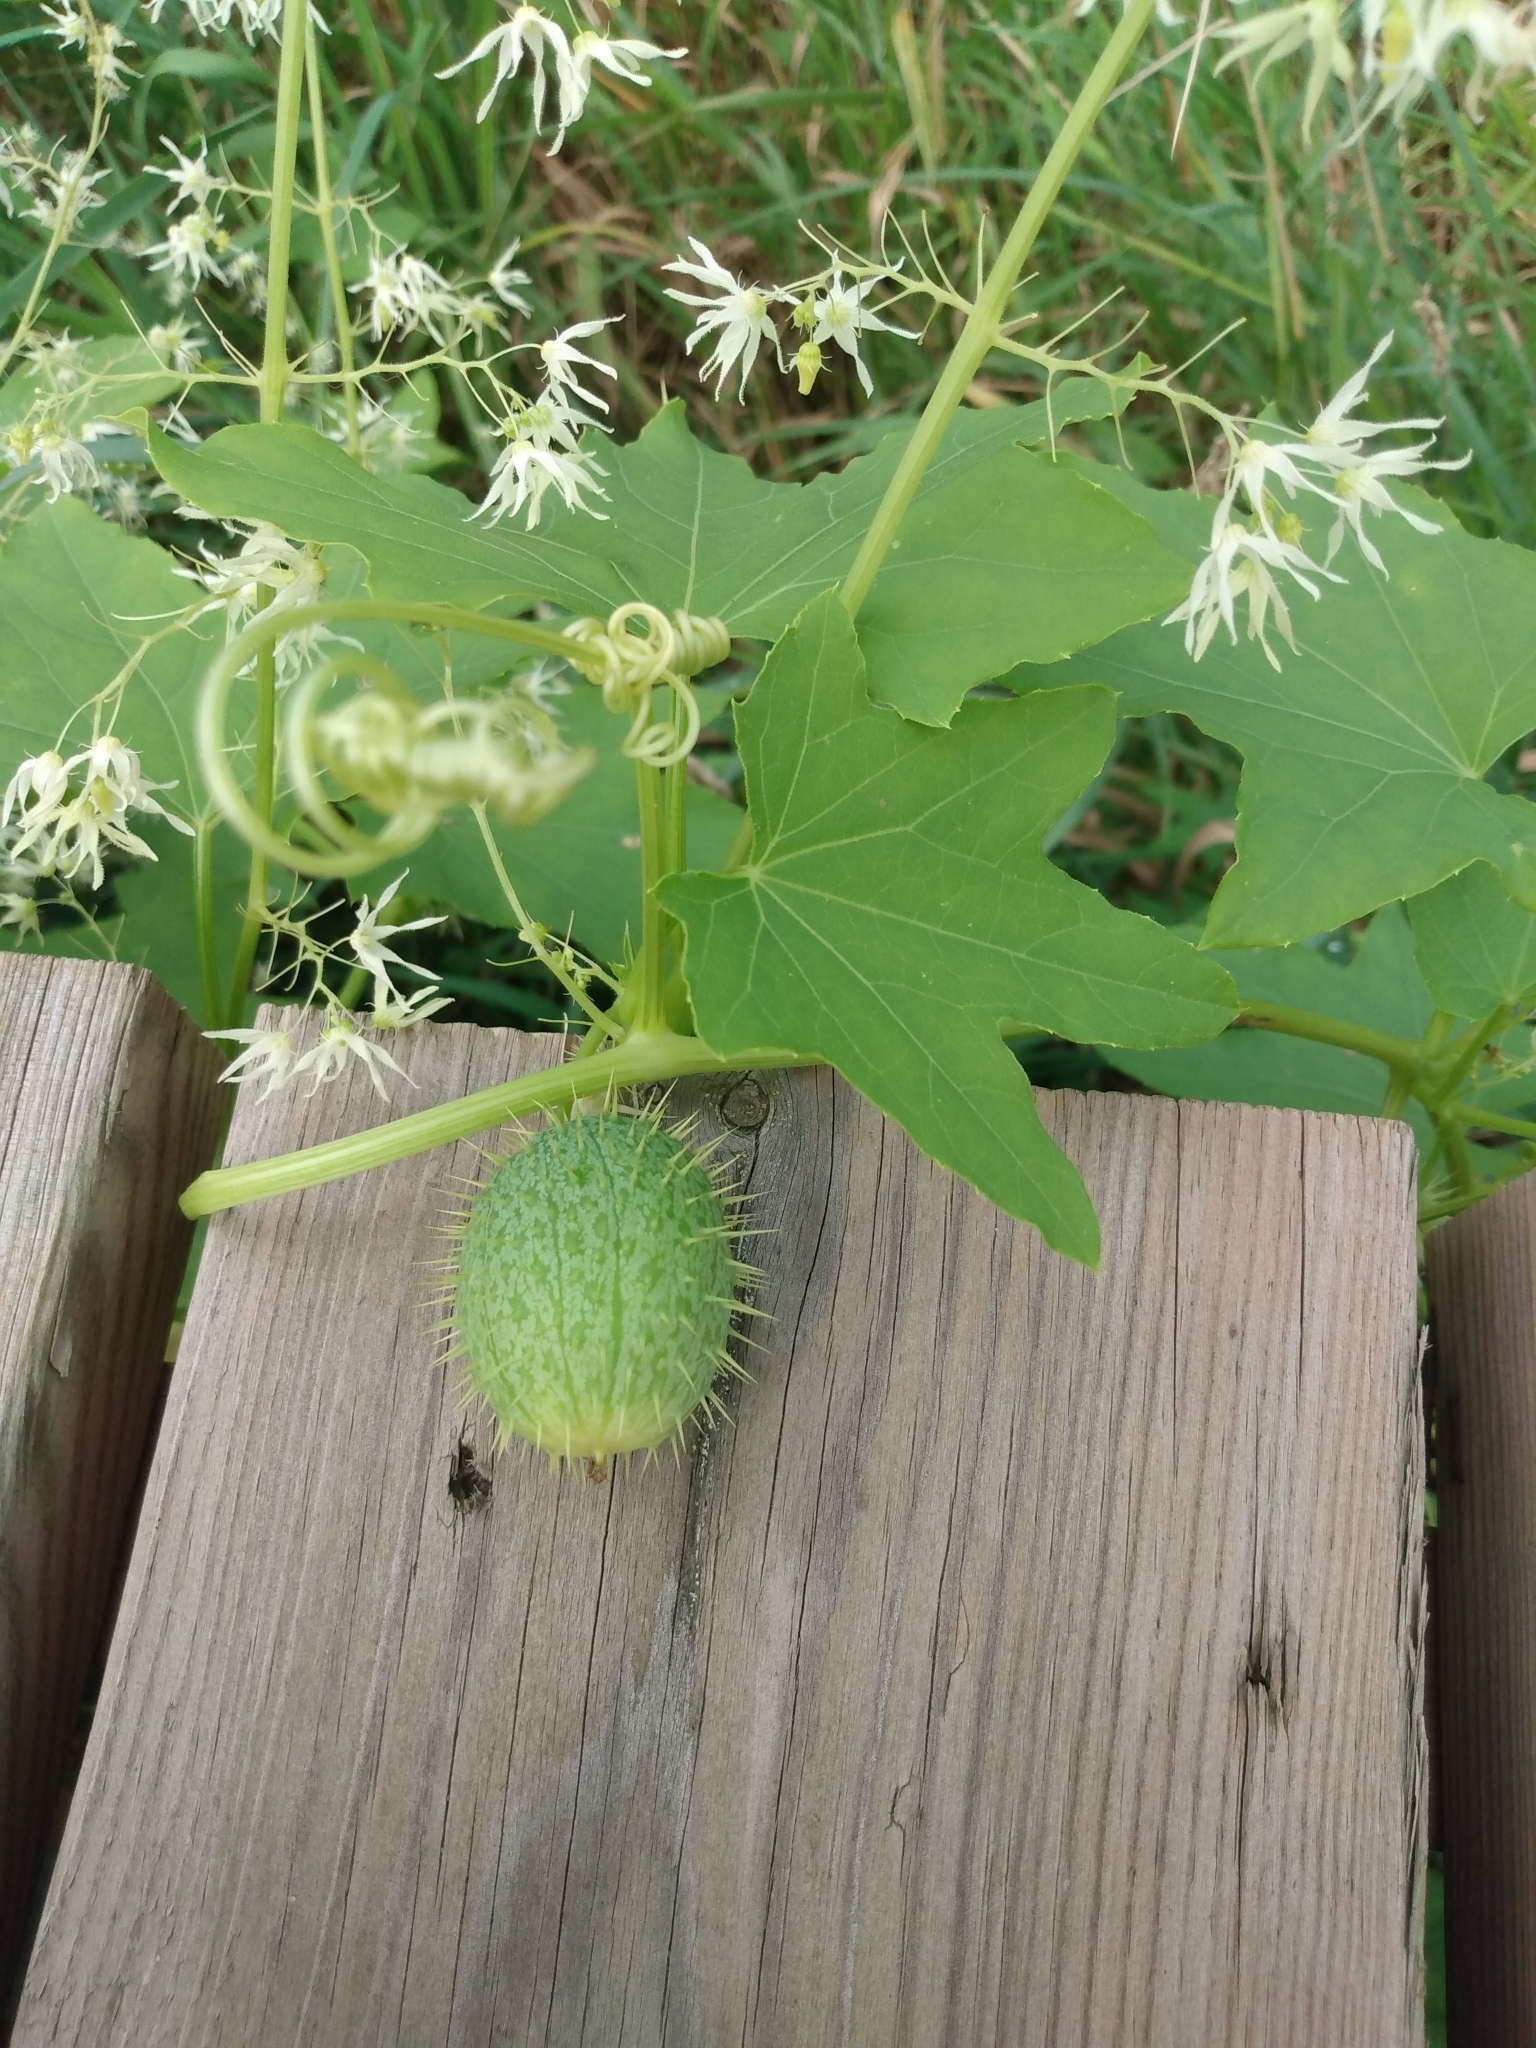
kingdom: Plantae
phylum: Tracheophyta
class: Magnoliopsida
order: Cucurbitales
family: Cucurbitaceae
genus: Echinocystis
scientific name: Echinocystis lobata
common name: Wild cucumber
